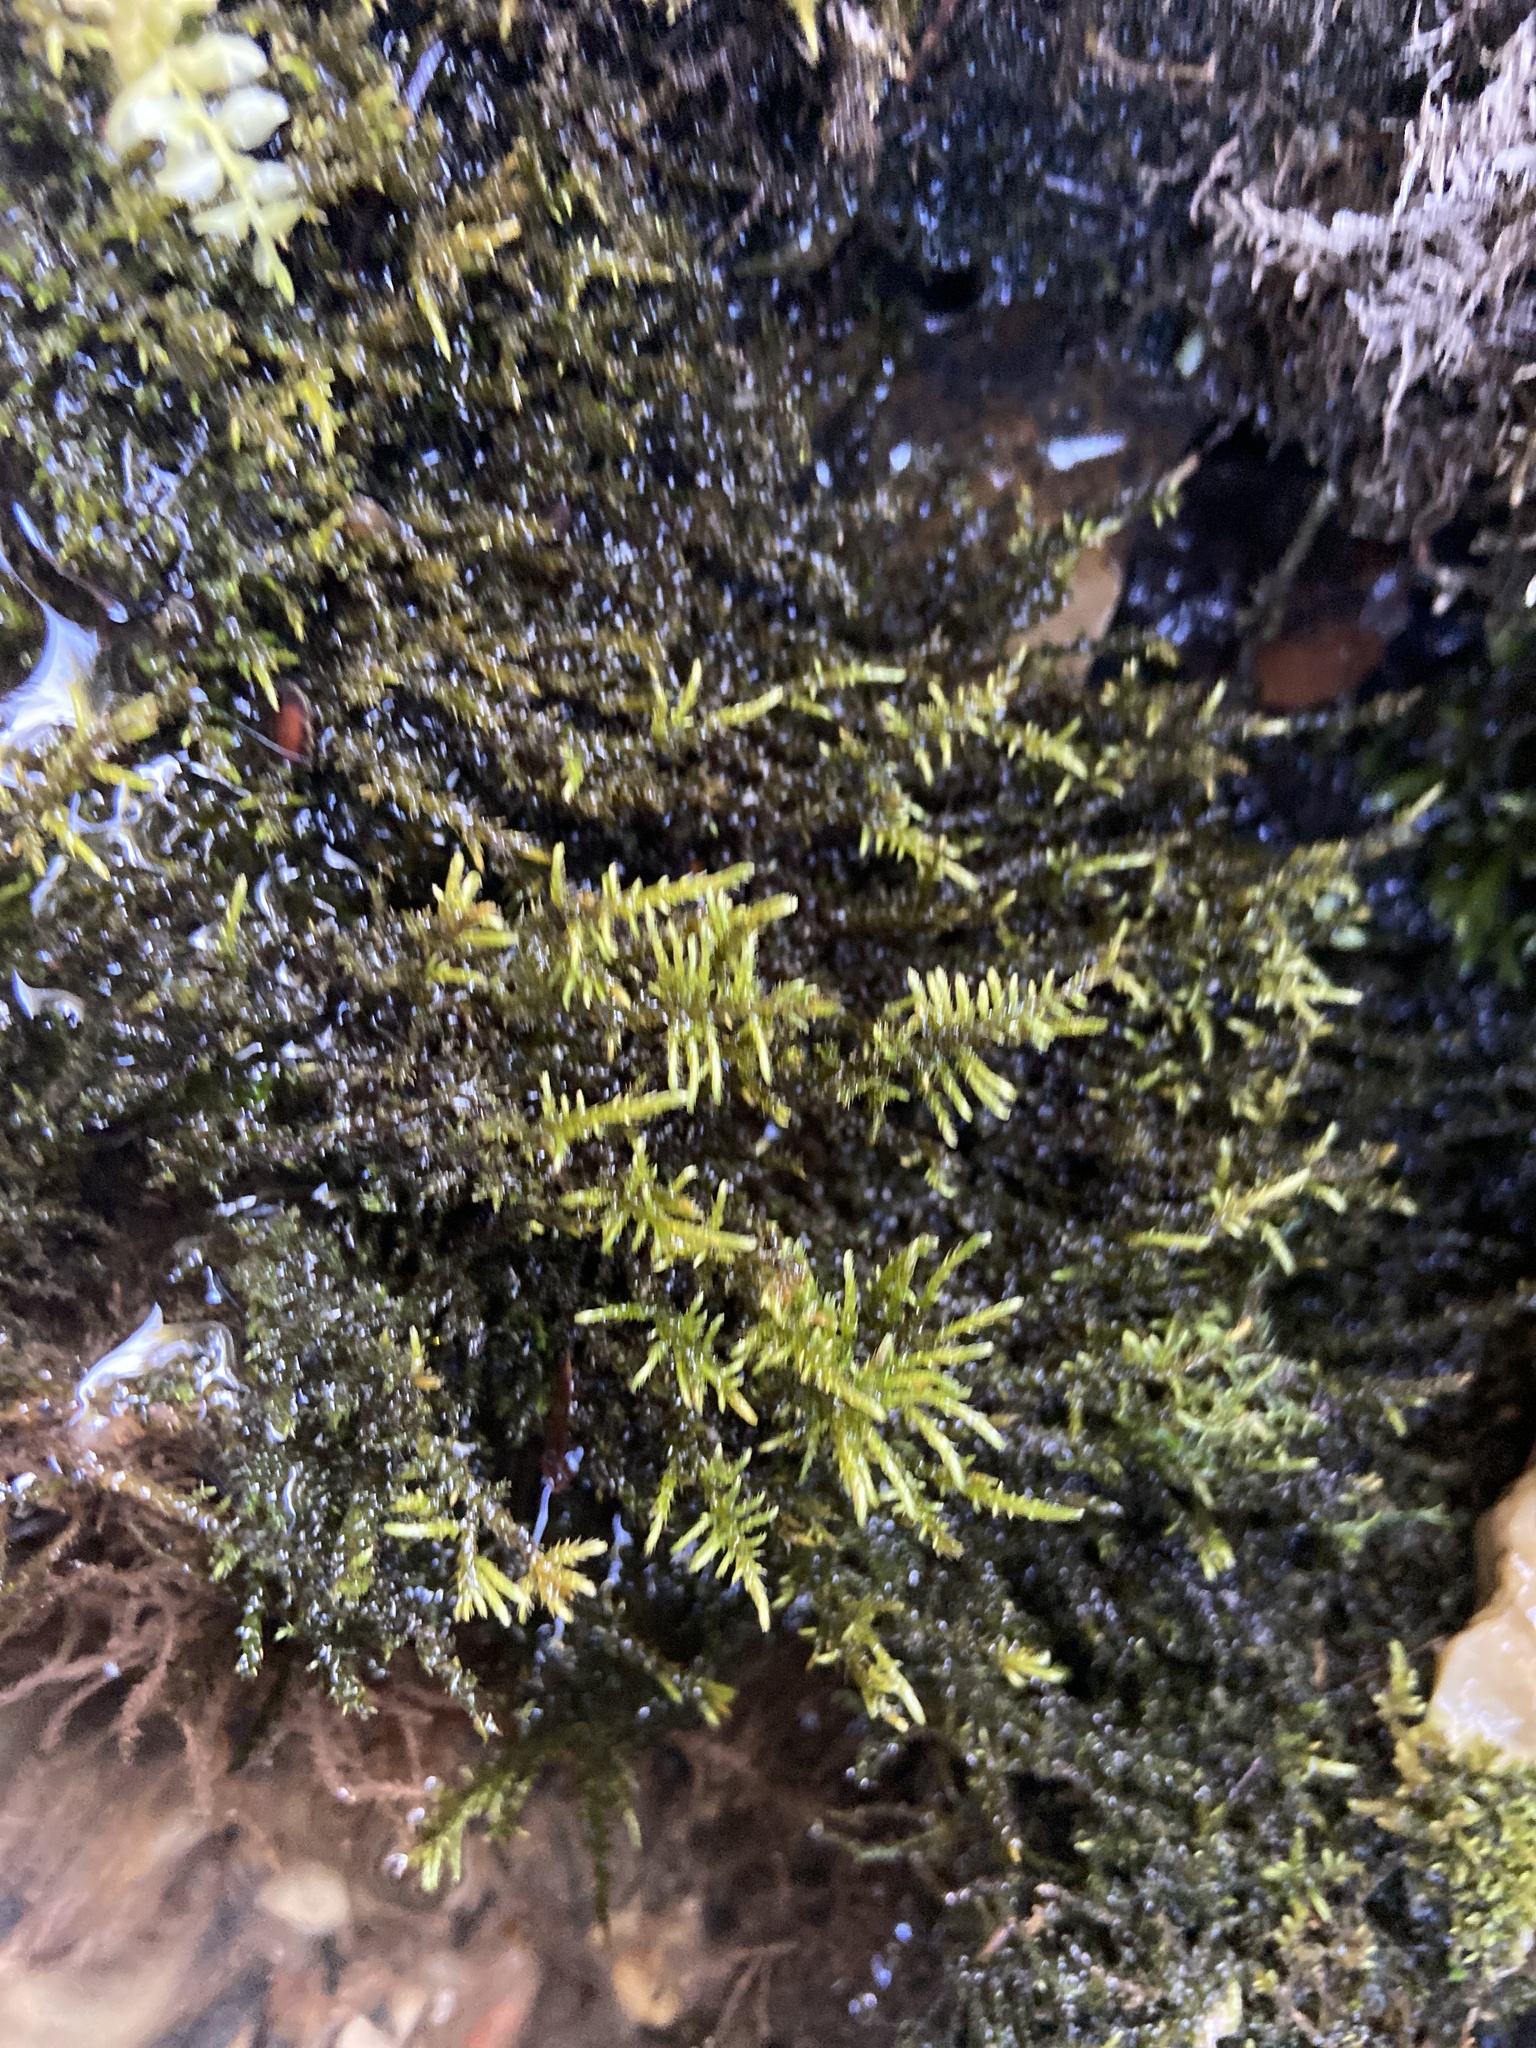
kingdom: Plantae
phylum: Bryophyta
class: Bryopsida
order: Hypnales
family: Amblystegiaceae
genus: Cratoneuron
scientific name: Cratoneuron filicinum
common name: Fern-leaved hook moss
